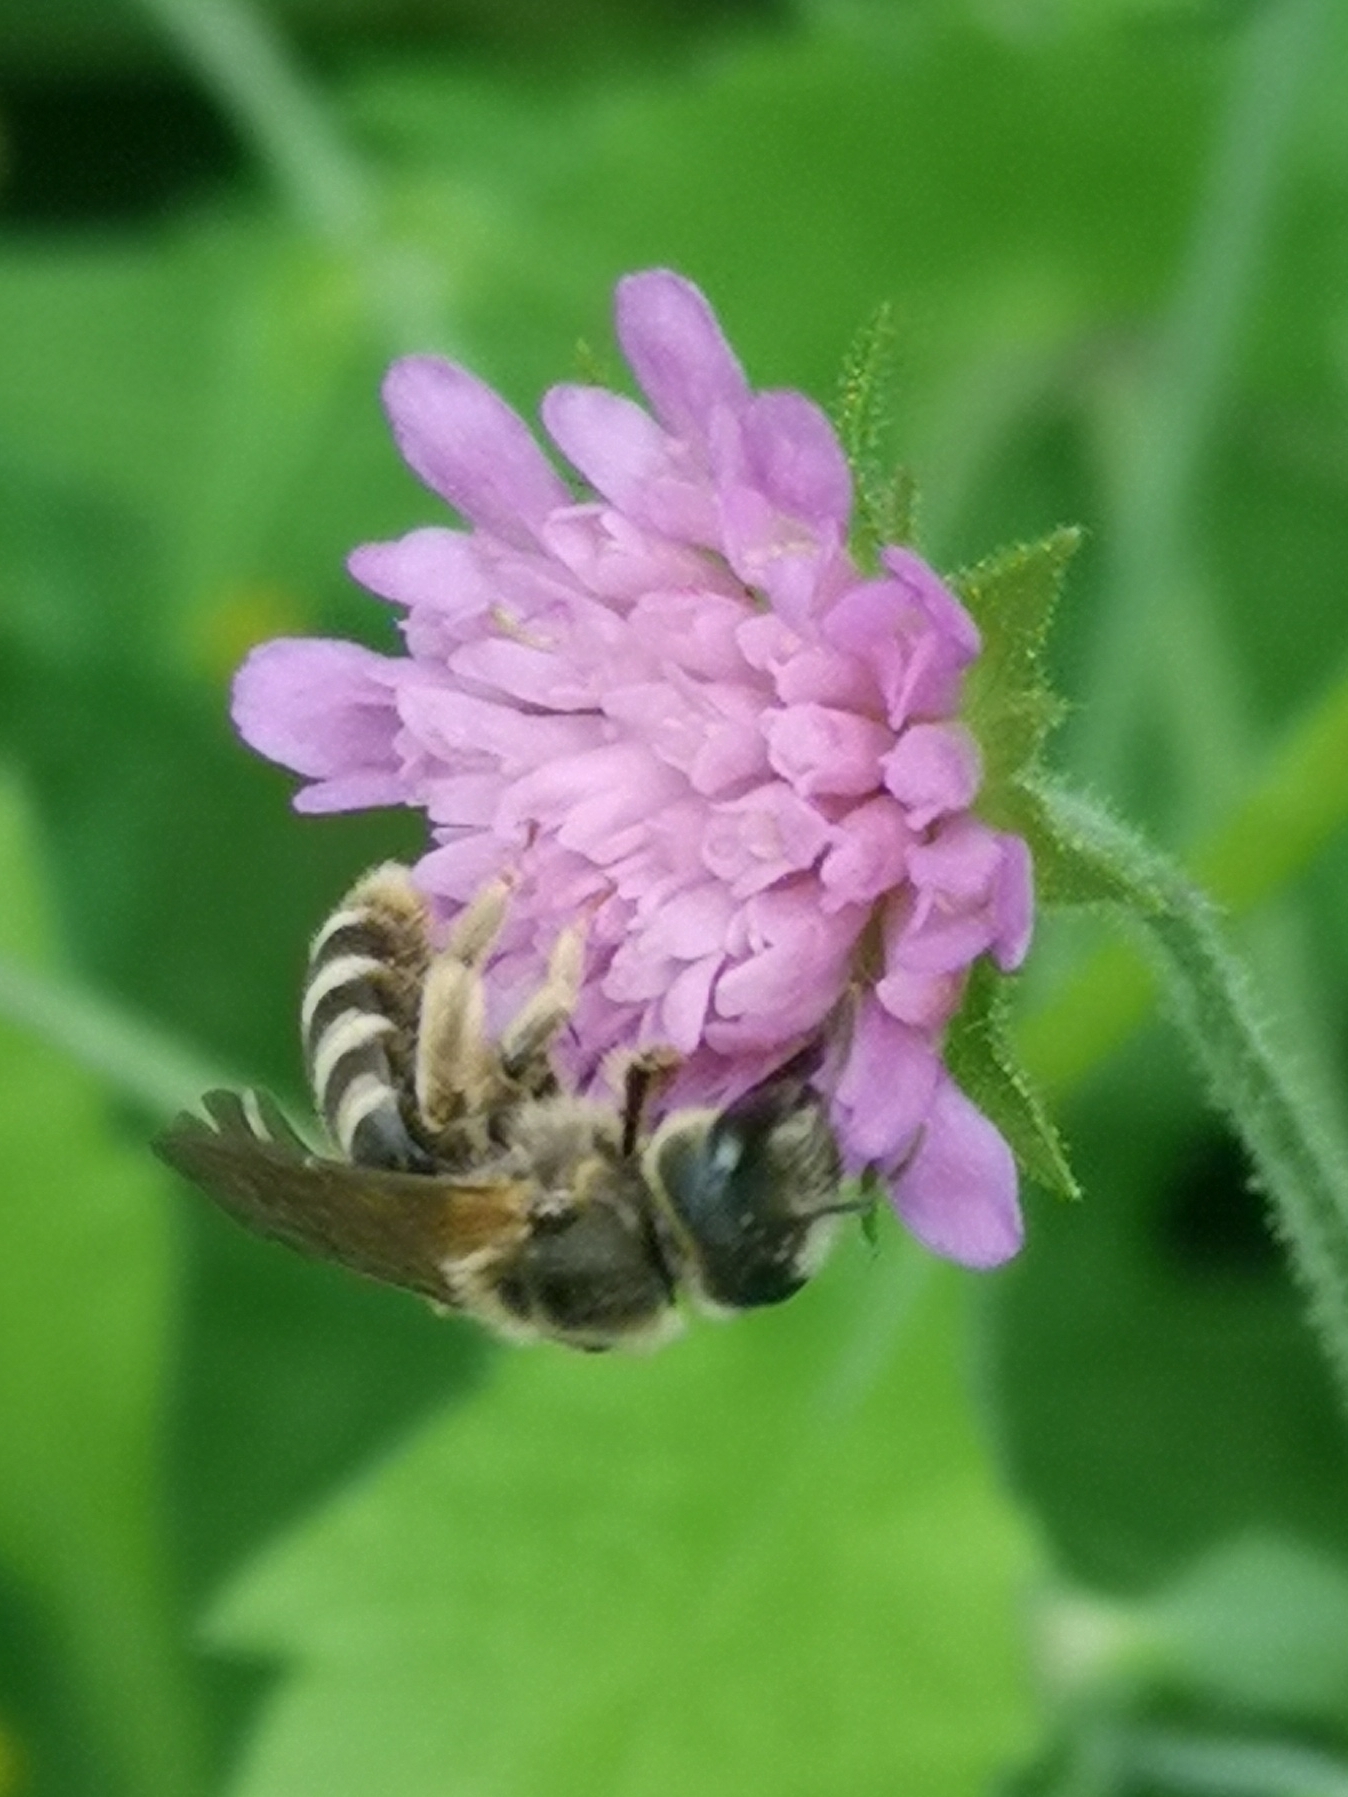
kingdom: Animalia
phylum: Arthropoda
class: Insecta
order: Hymenoptera
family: Halictidae
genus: Halictus
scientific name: Halictus scabiosae
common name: Great banded furrow bee
